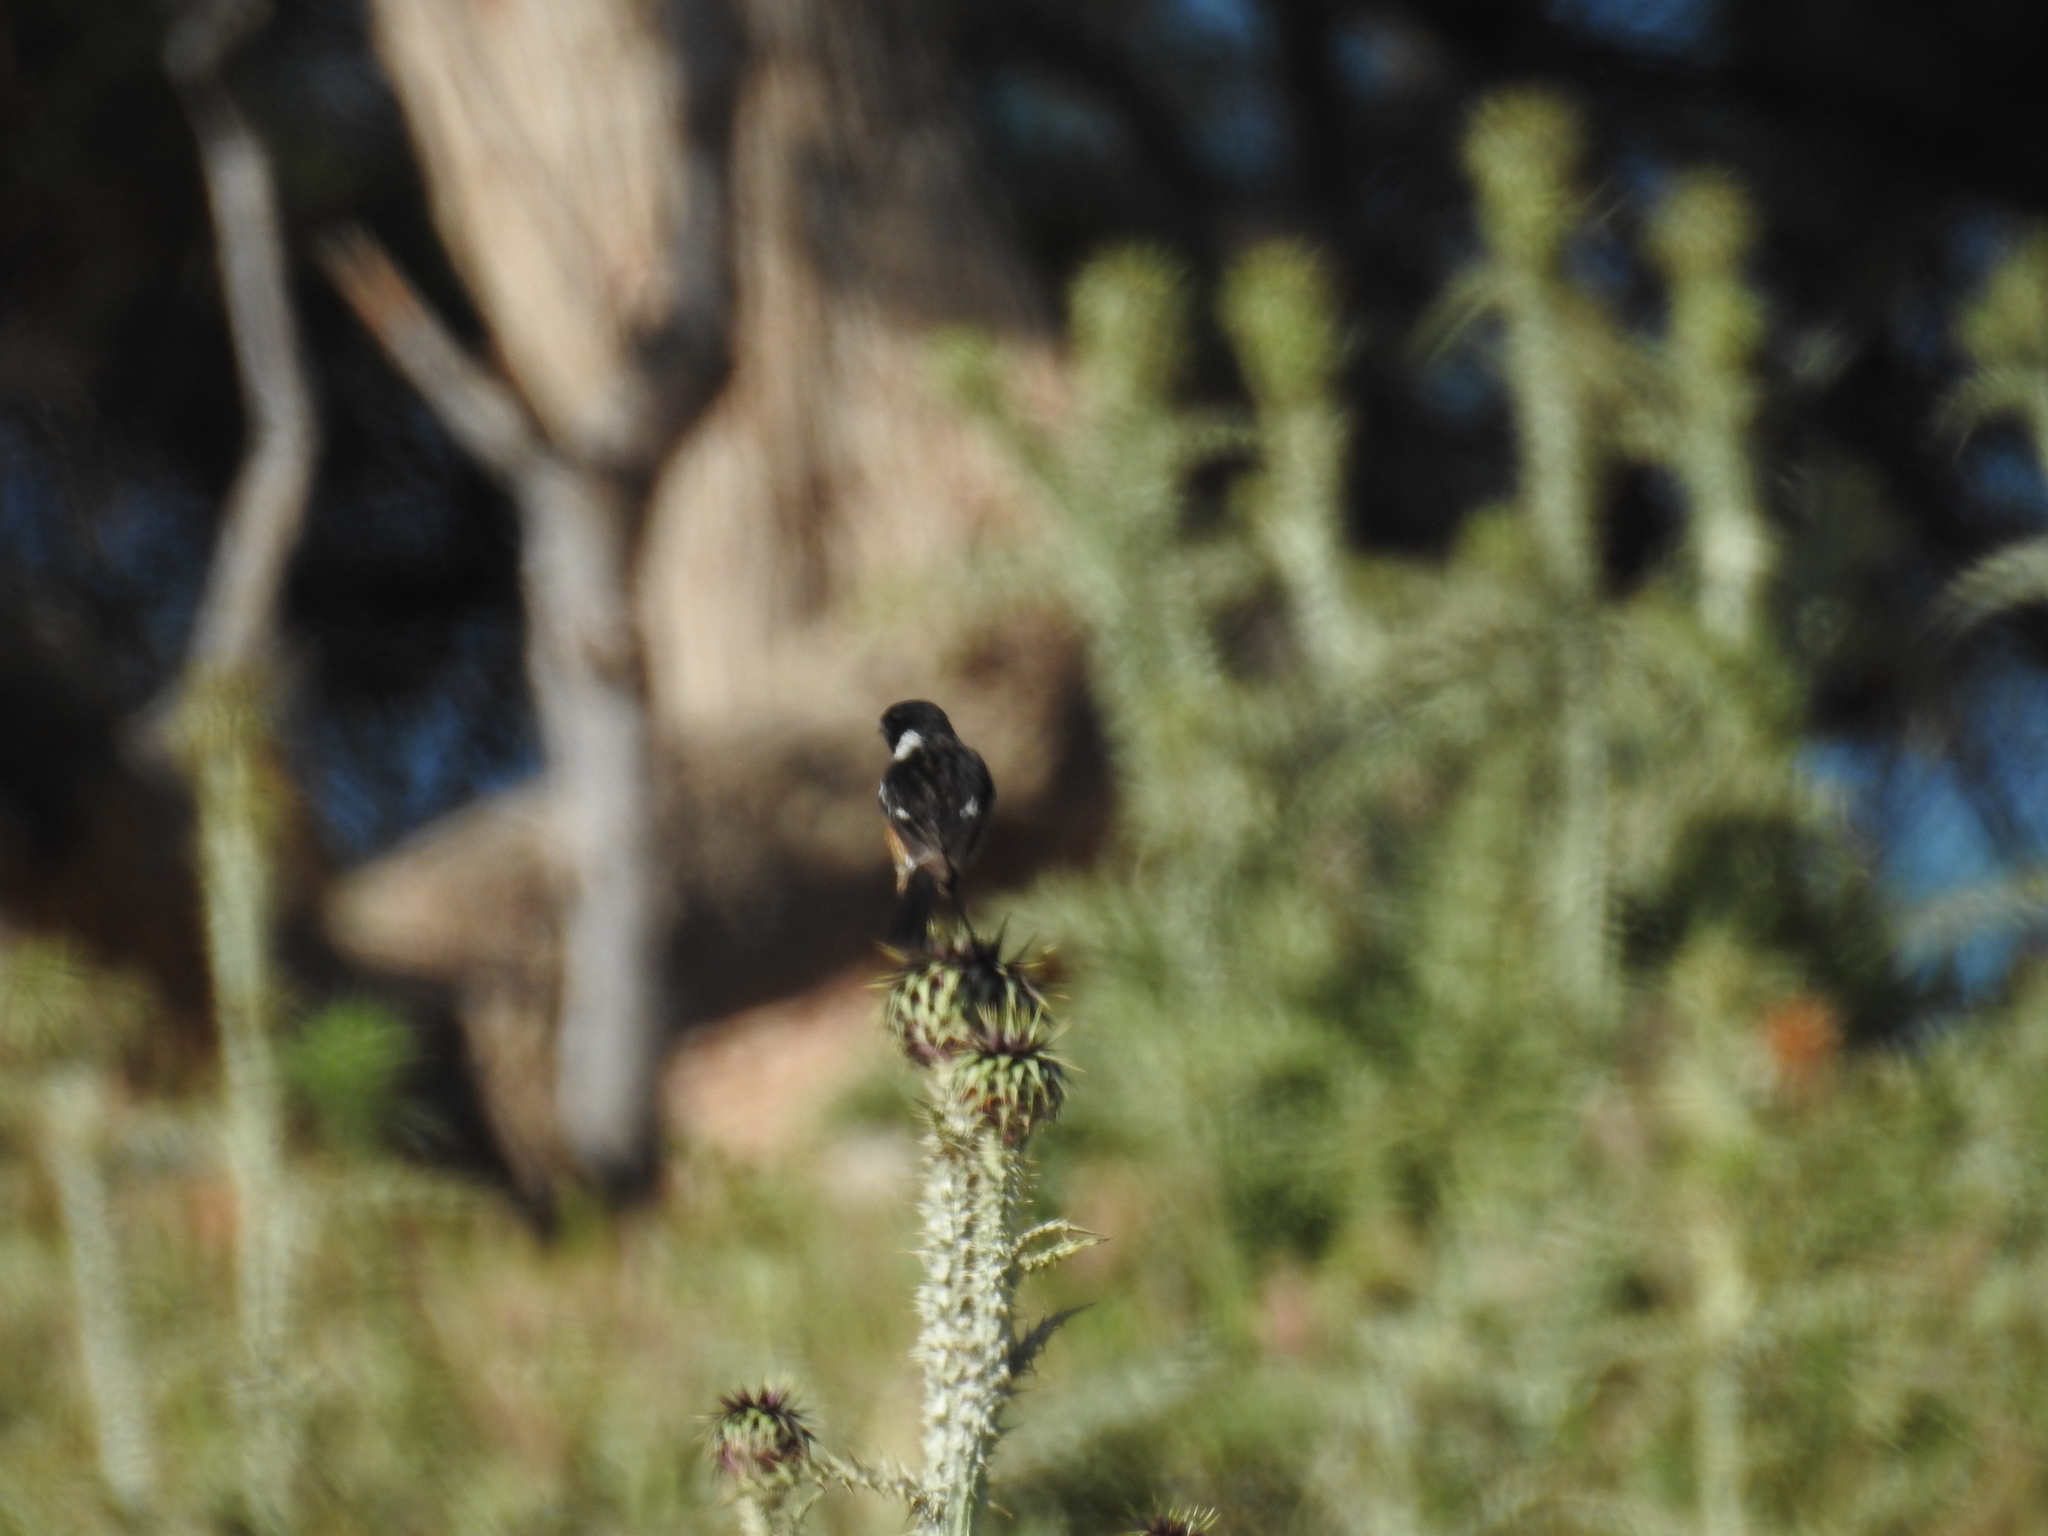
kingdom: Animalia
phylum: Chordata
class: Aves
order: Passeriformes
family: Muscicapidae
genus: Saxicola
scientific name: Saxicola rubicola
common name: European stonechat
